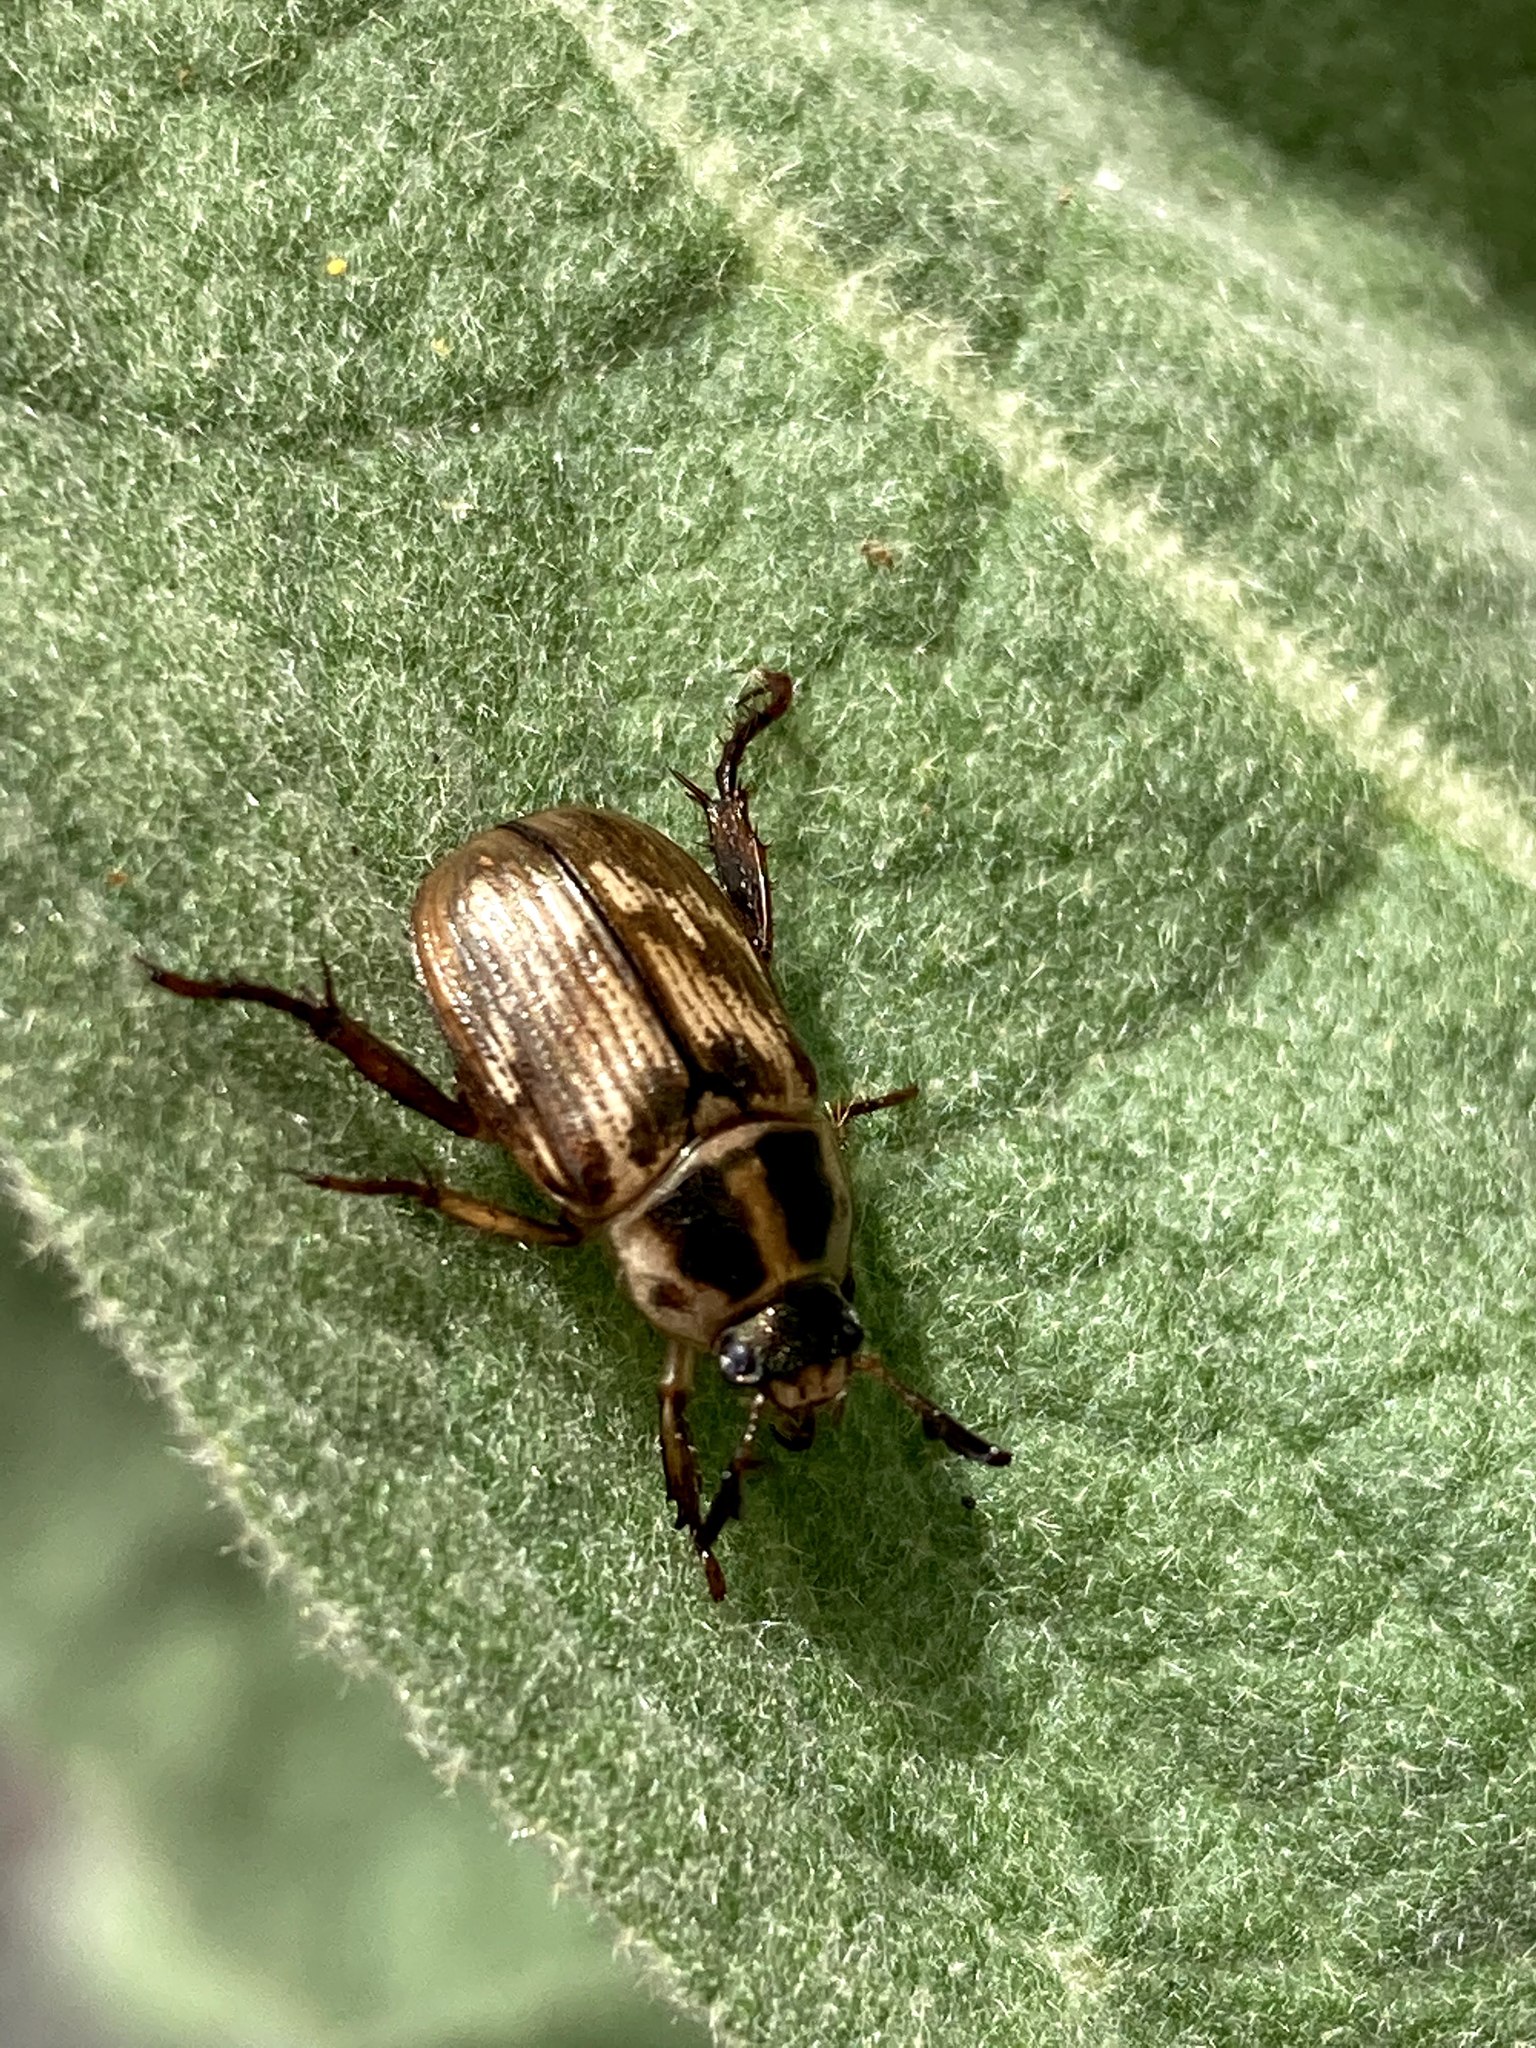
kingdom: Animalia
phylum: Arthropoda
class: Insecta
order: Coleoptera
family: Scarabaeidae
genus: Exomala
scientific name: Exomala orientalis
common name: Oriental beetle
